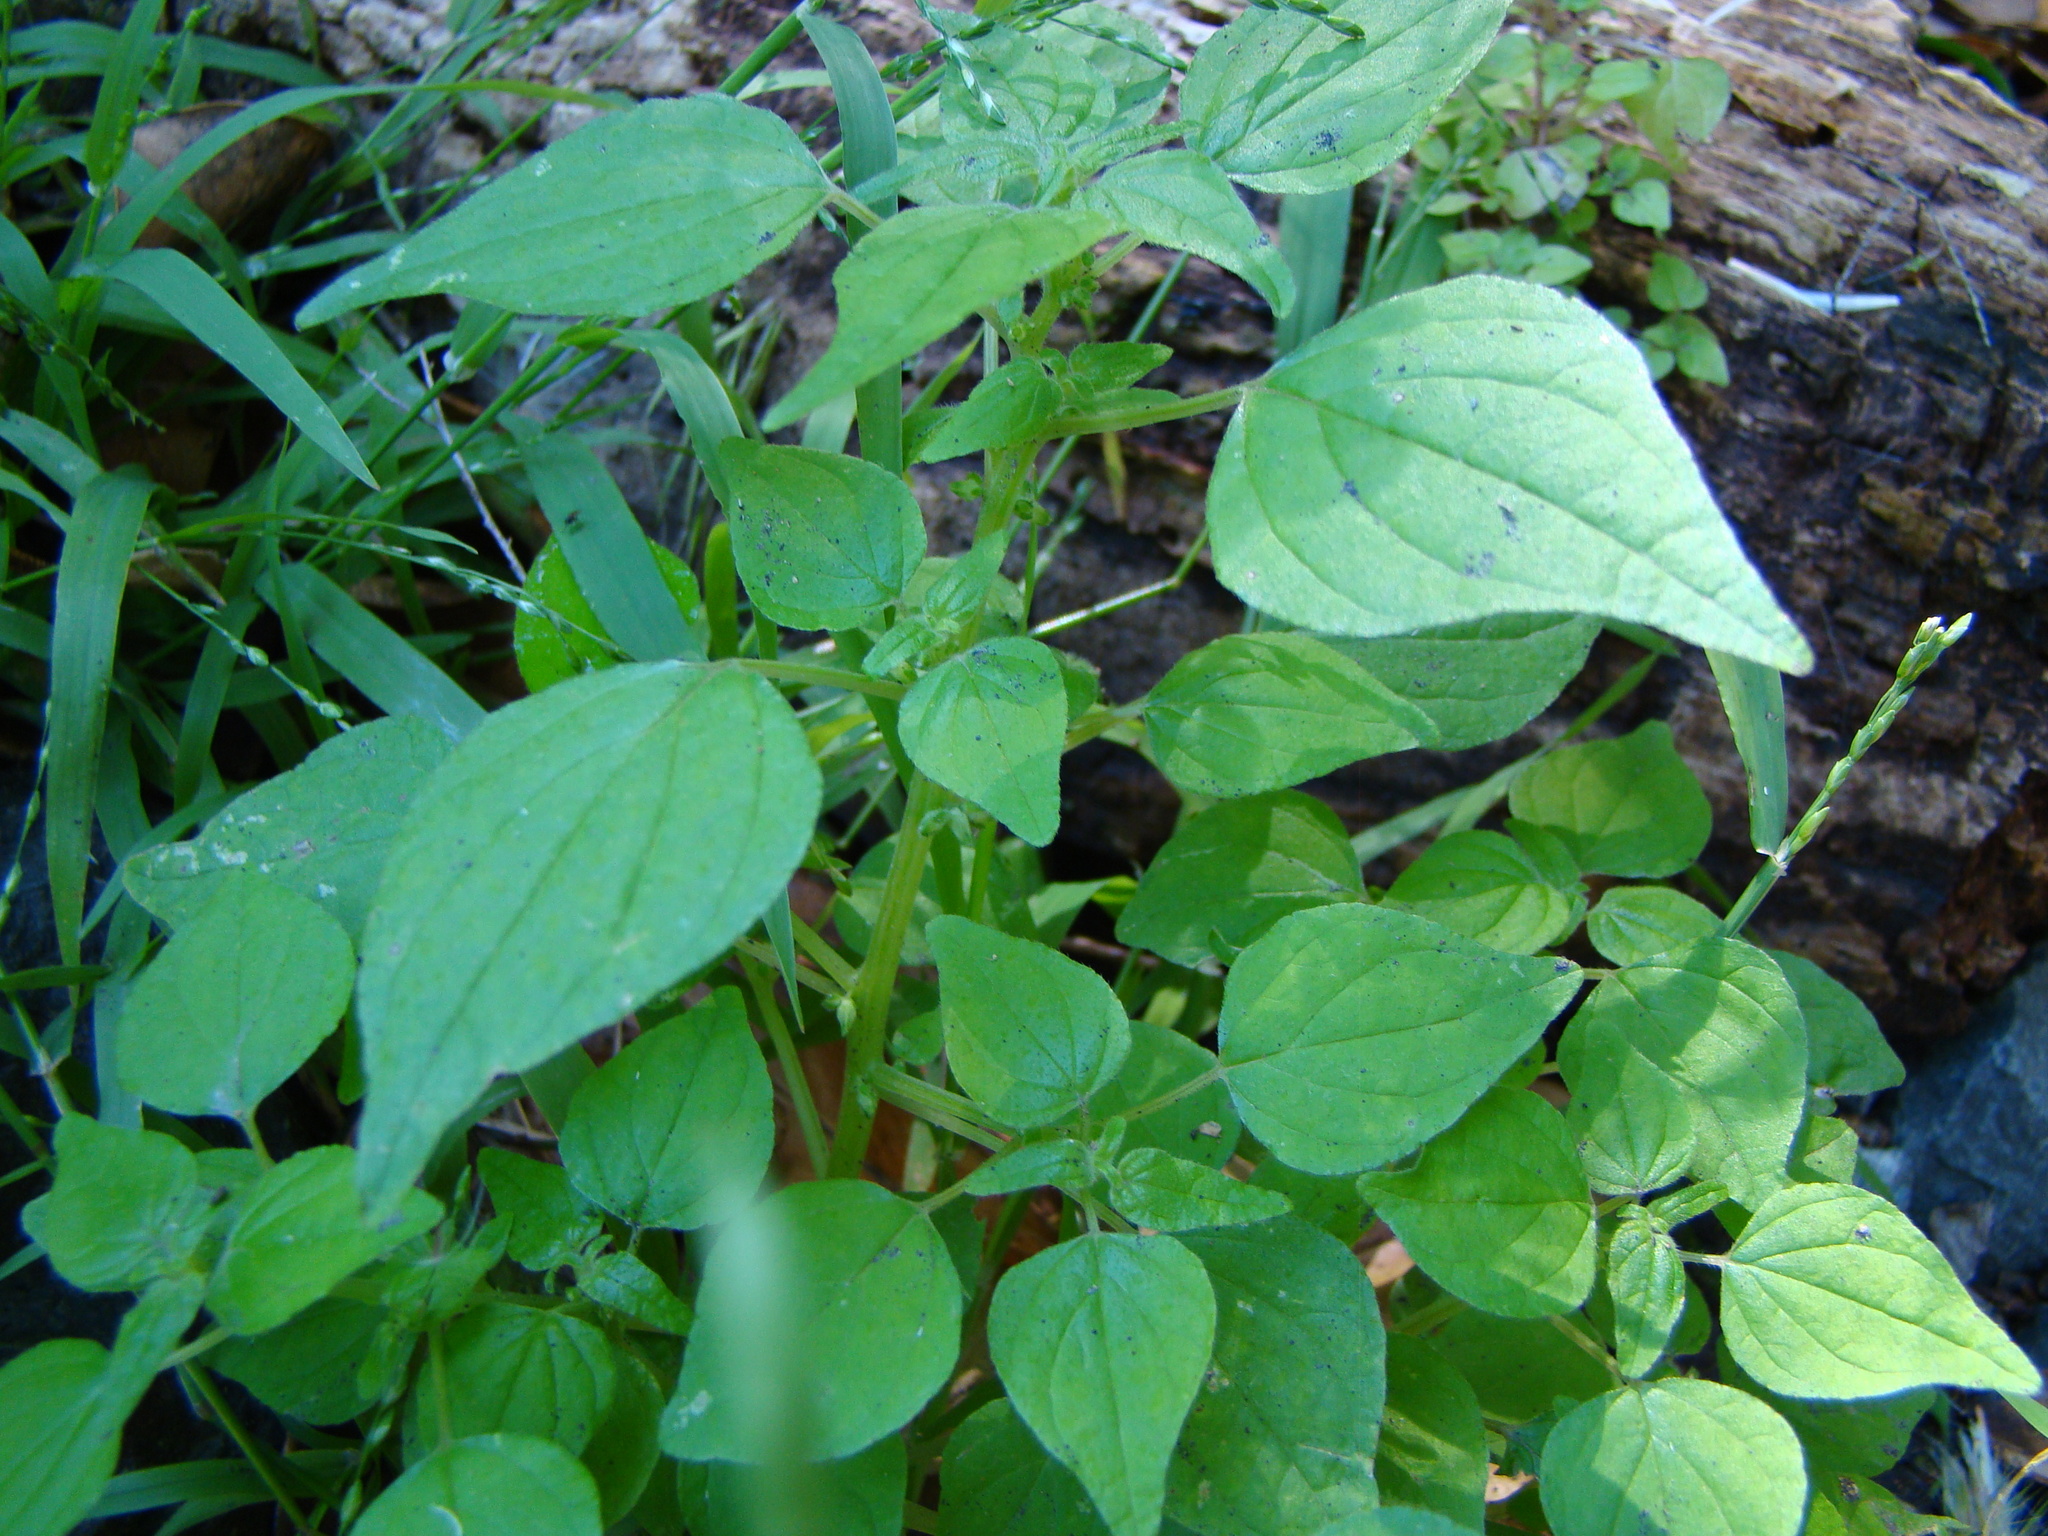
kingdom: Plantae
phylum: Tracheophyta
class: Magnoliopsida
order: Rosales
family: Urticaceae
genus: Parietaria
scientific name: Parietaria debilis
